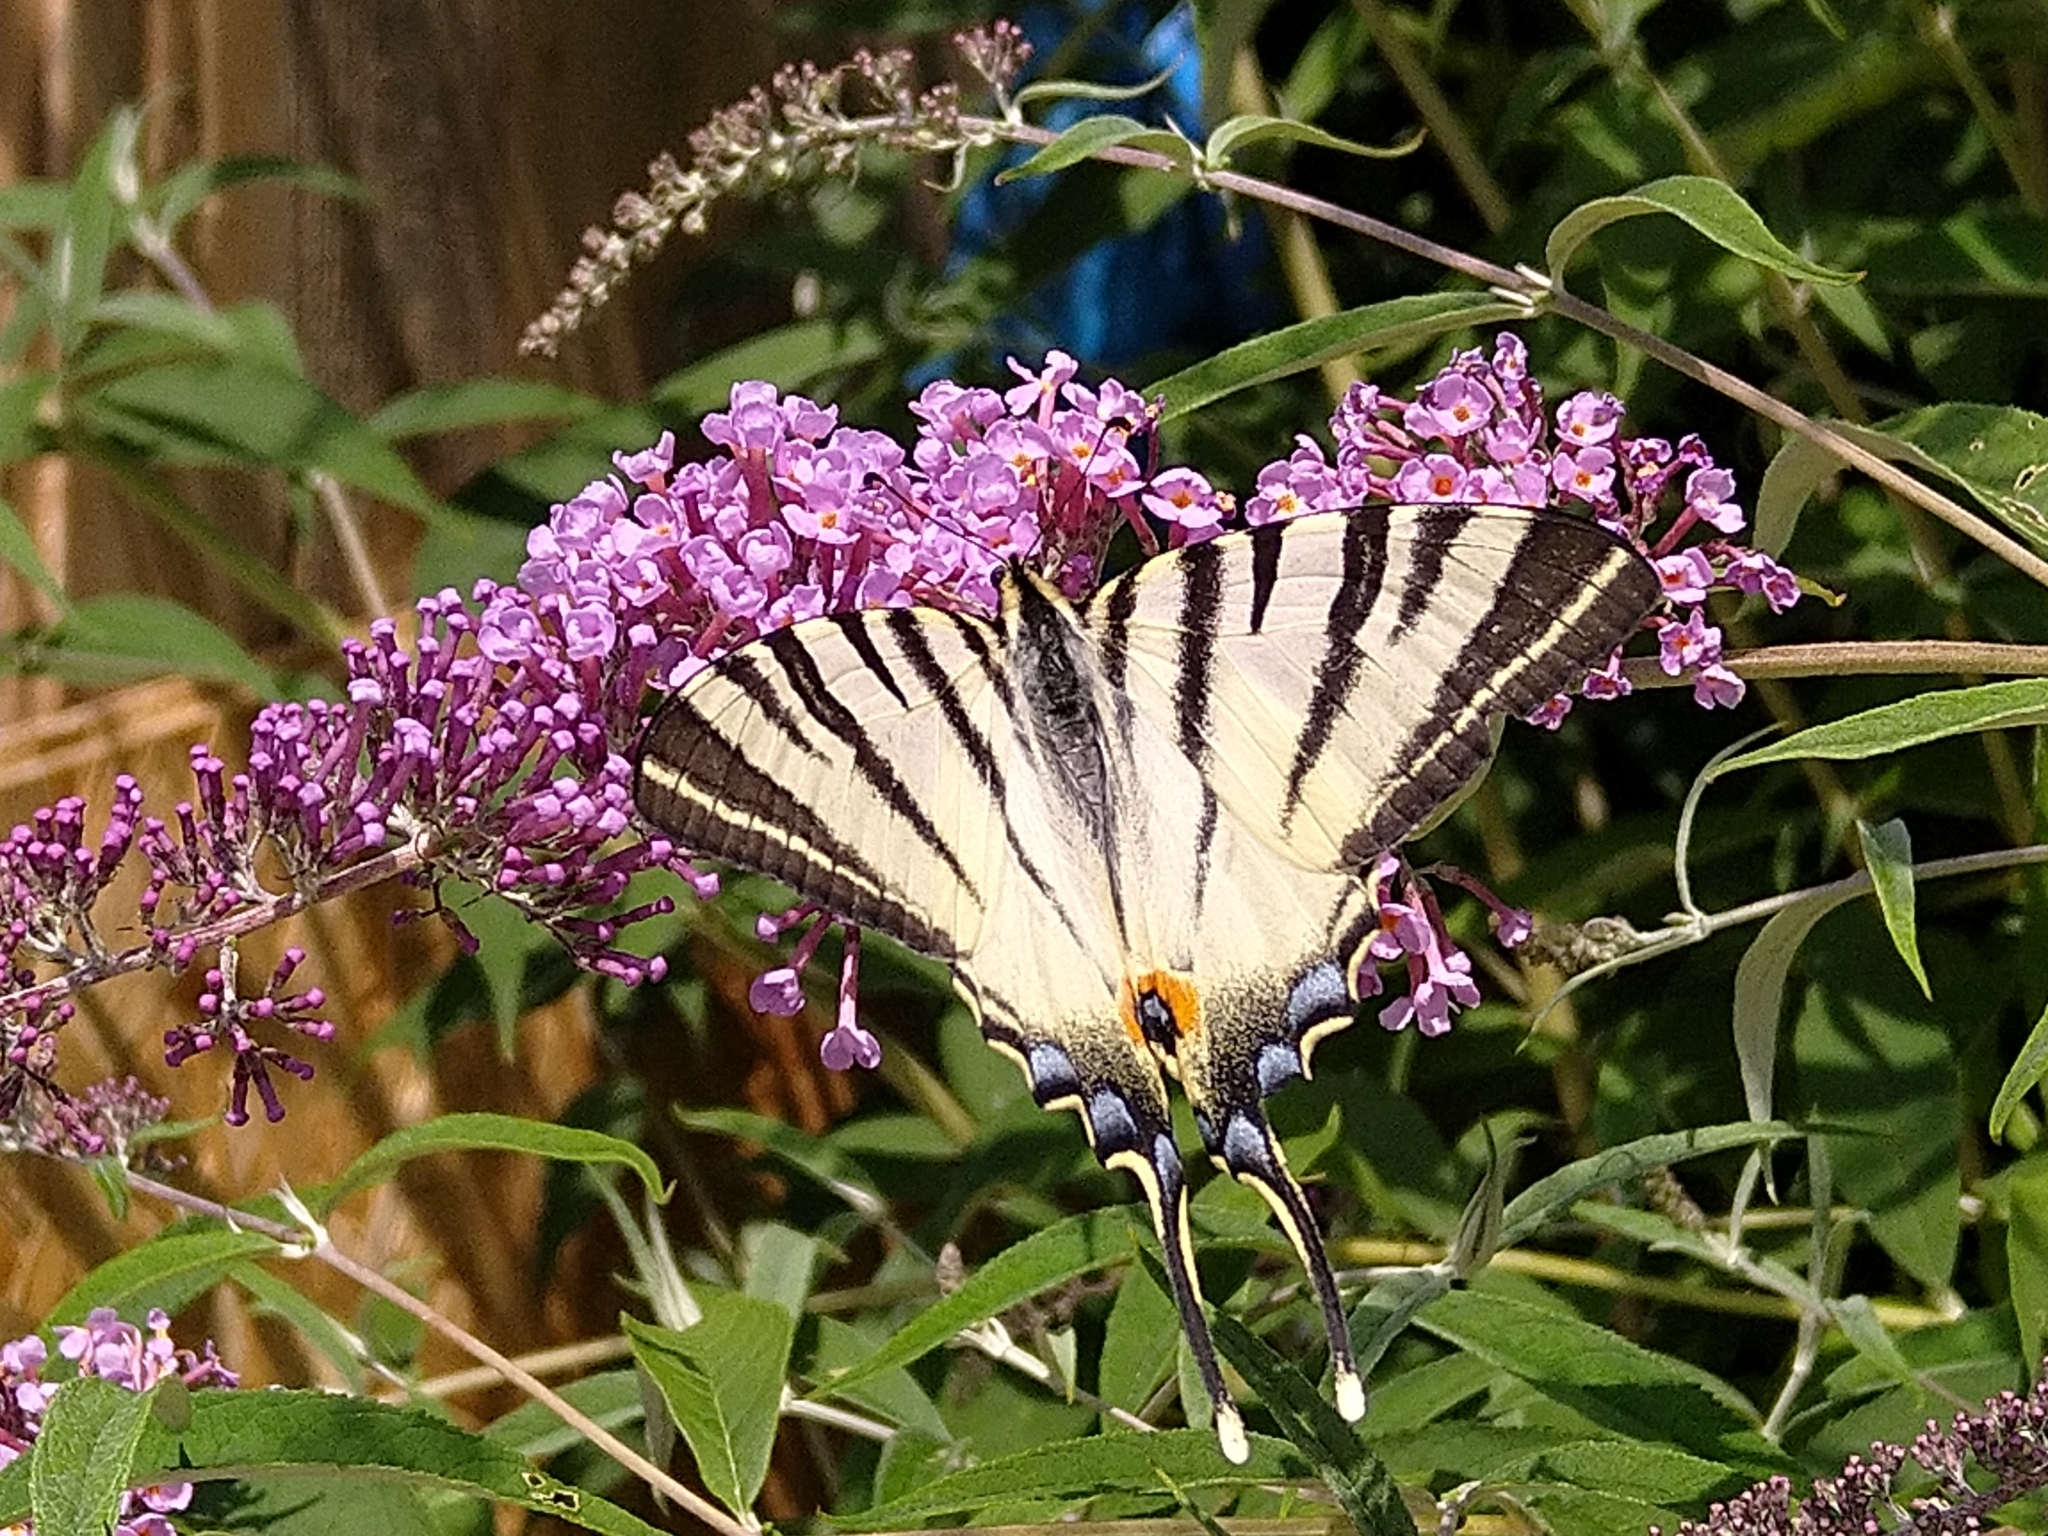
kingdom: Animalia
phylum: Arthropoda
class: Insecta
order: Lepidoptera
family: Papilionidae
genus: Iphiclides
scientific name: Iphiclides podalirius
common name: Scarce swallowtail
